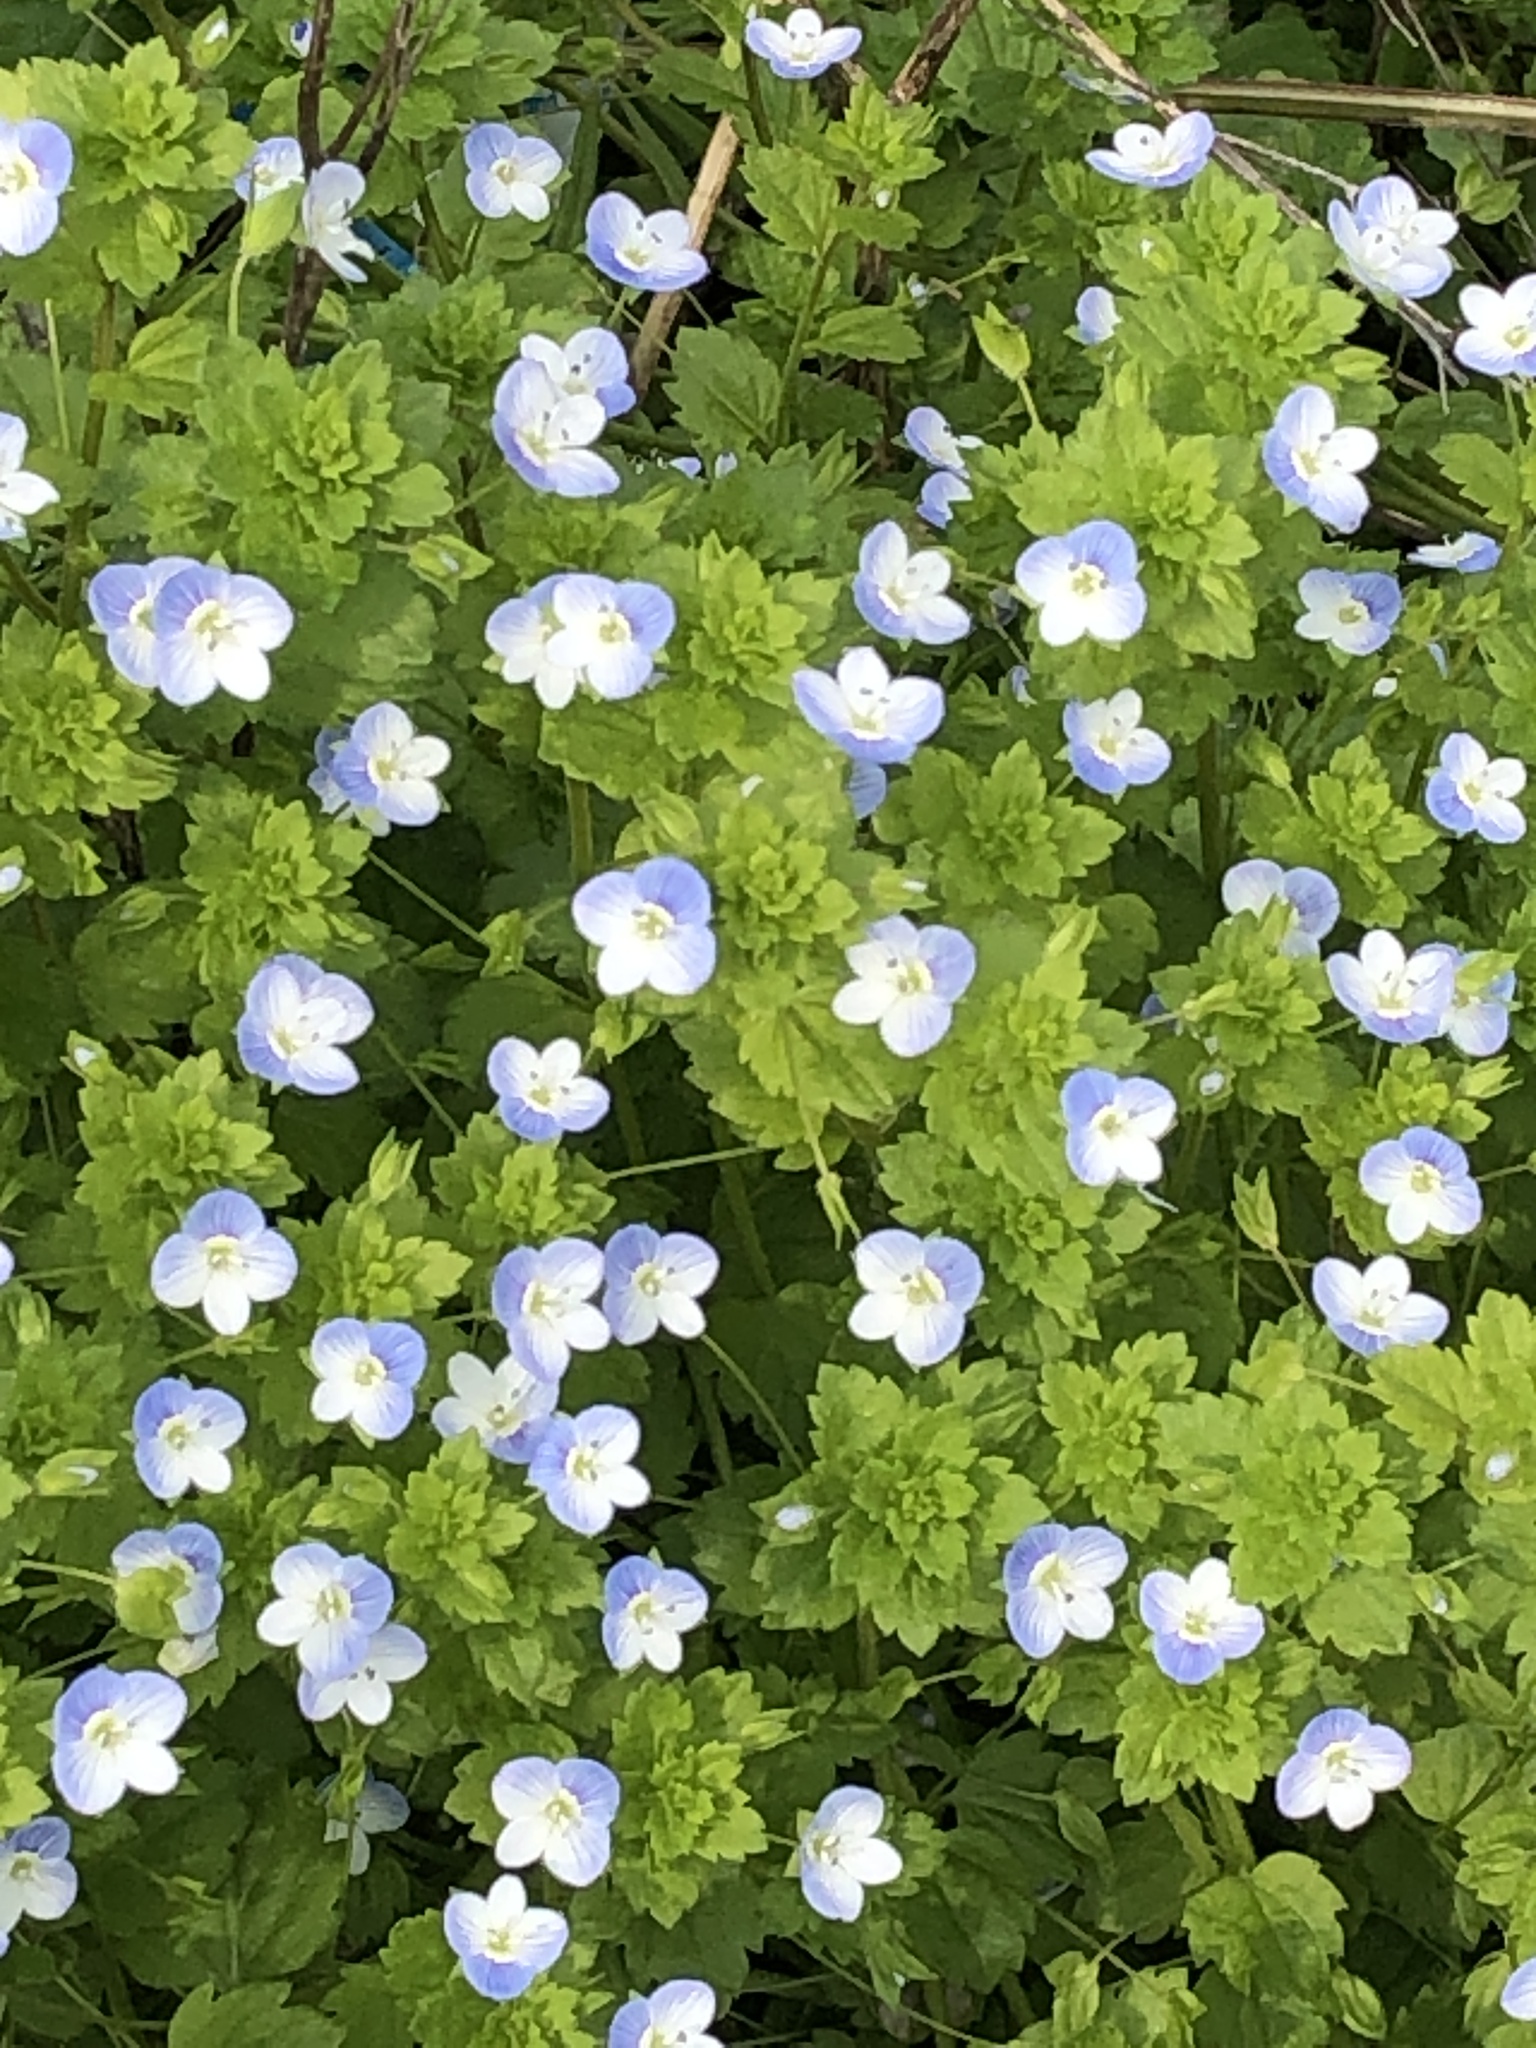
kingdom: Plantae
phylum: Tracheophyta
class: Magnoliopsida
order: Lamiales
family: Plantaginaceae
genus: Veronica
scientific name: Veronica persica
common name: Common field-speedwell
